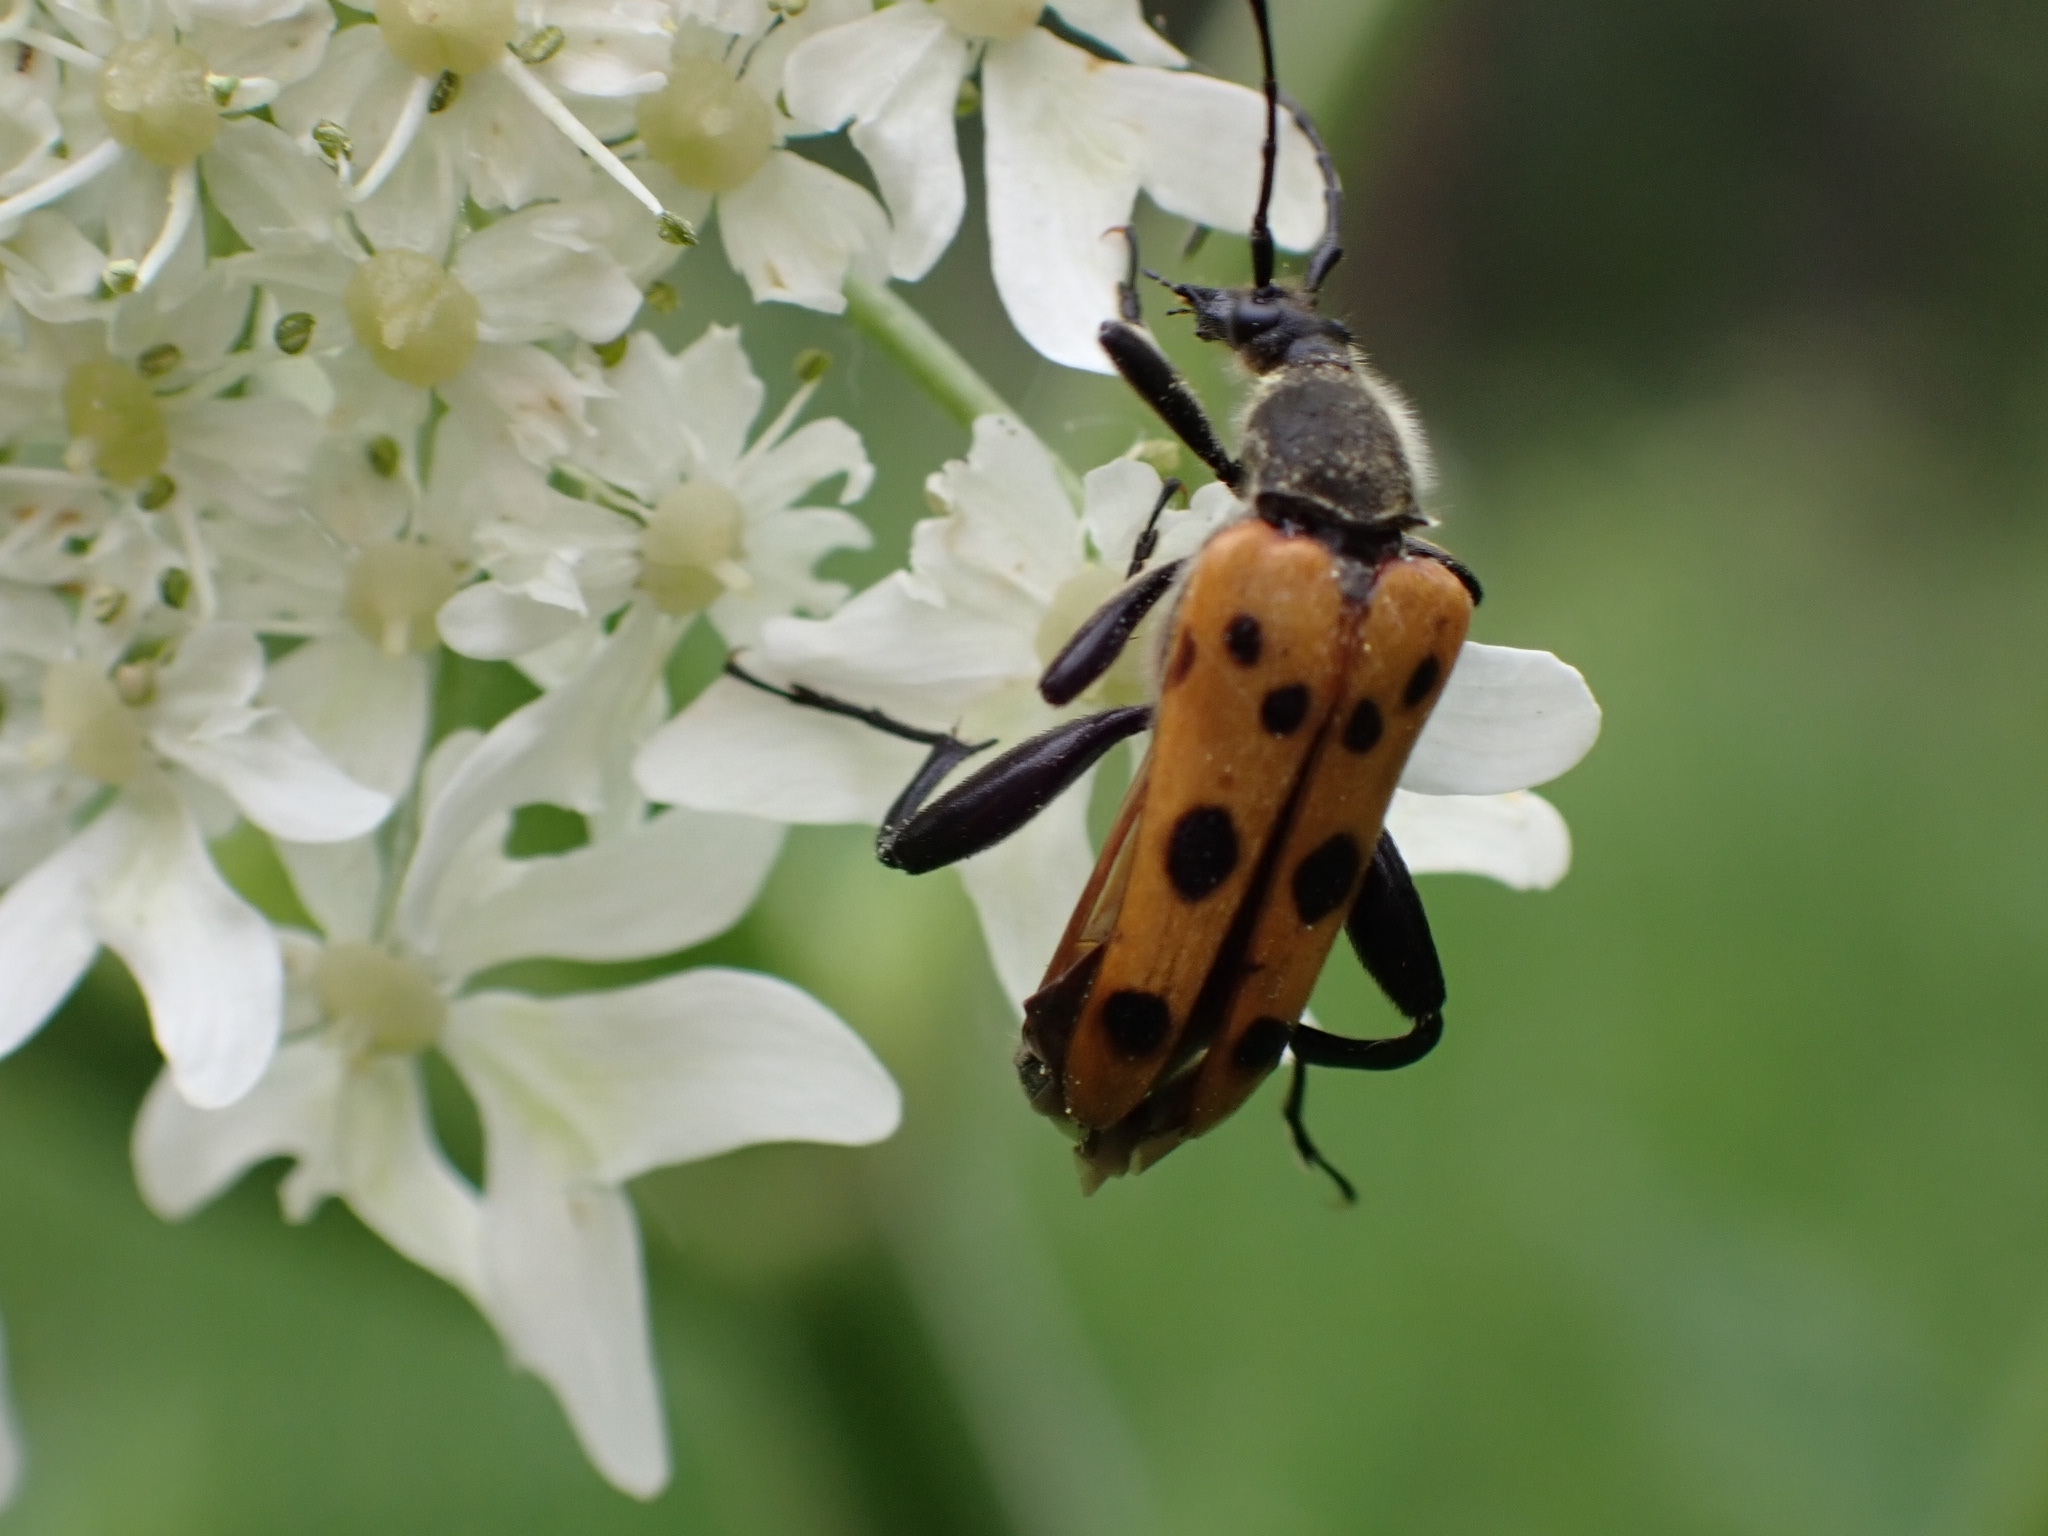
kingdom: Animalia
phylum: Arthropoda
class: Insecta
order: Coleoptera
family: Cerambycidae
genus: Oedecnema
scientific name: Oedecnema gebleri
